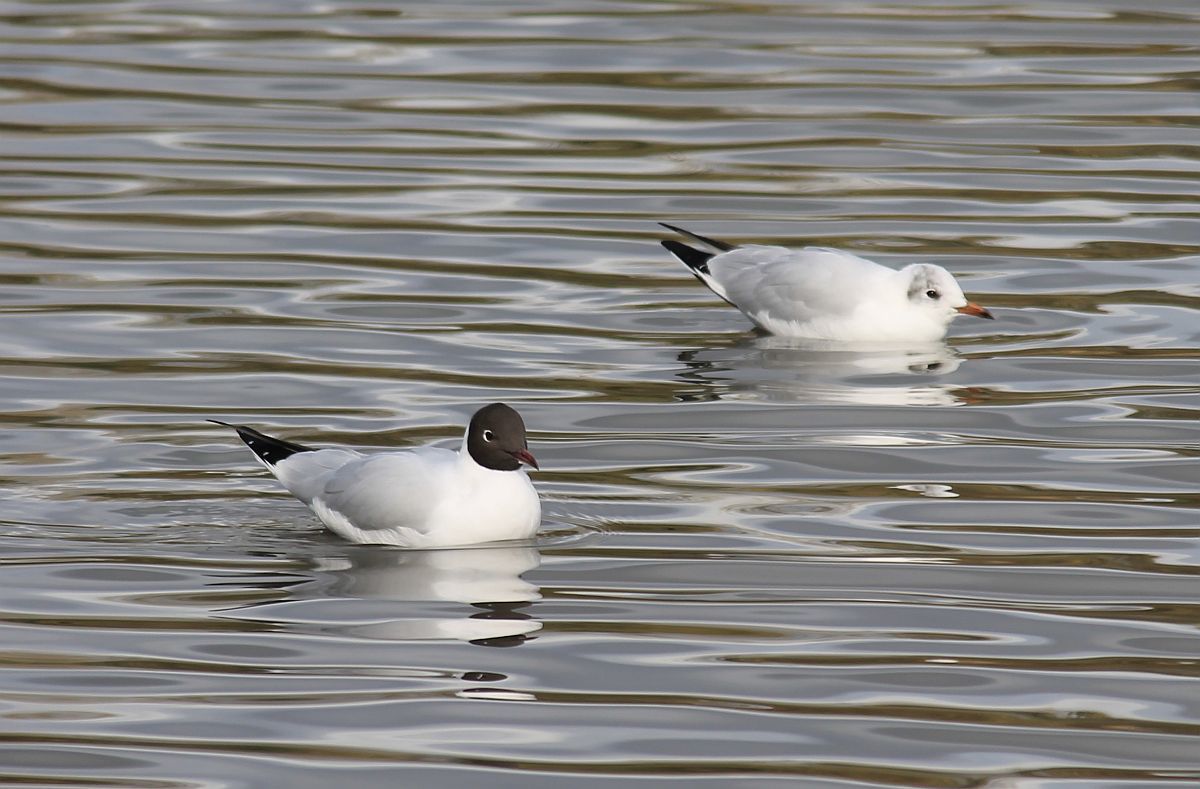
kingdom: Animalia
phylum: Chordata
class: Aves
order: Charadriiformes
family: Laridae
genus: Chroicocephalus
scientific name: Chroicocephalus ridibundus
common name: Black-headed gull
